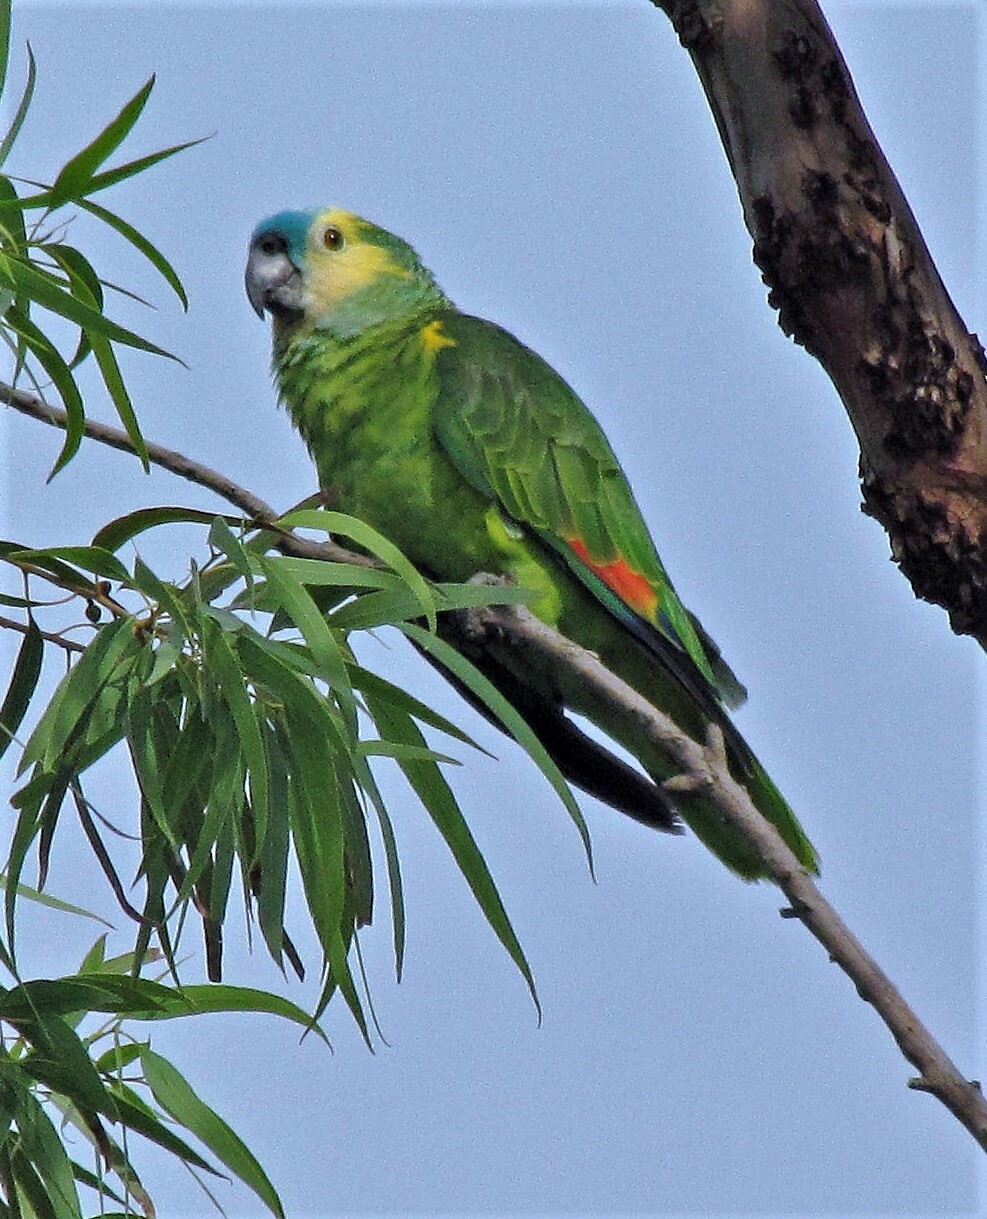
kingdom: Animalia
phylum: Chordata
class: Aves
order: Psittaciformes
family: Psittacidae
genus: Amazona
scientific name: Amazona aestiva
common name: Turquoise-fronted amazon
